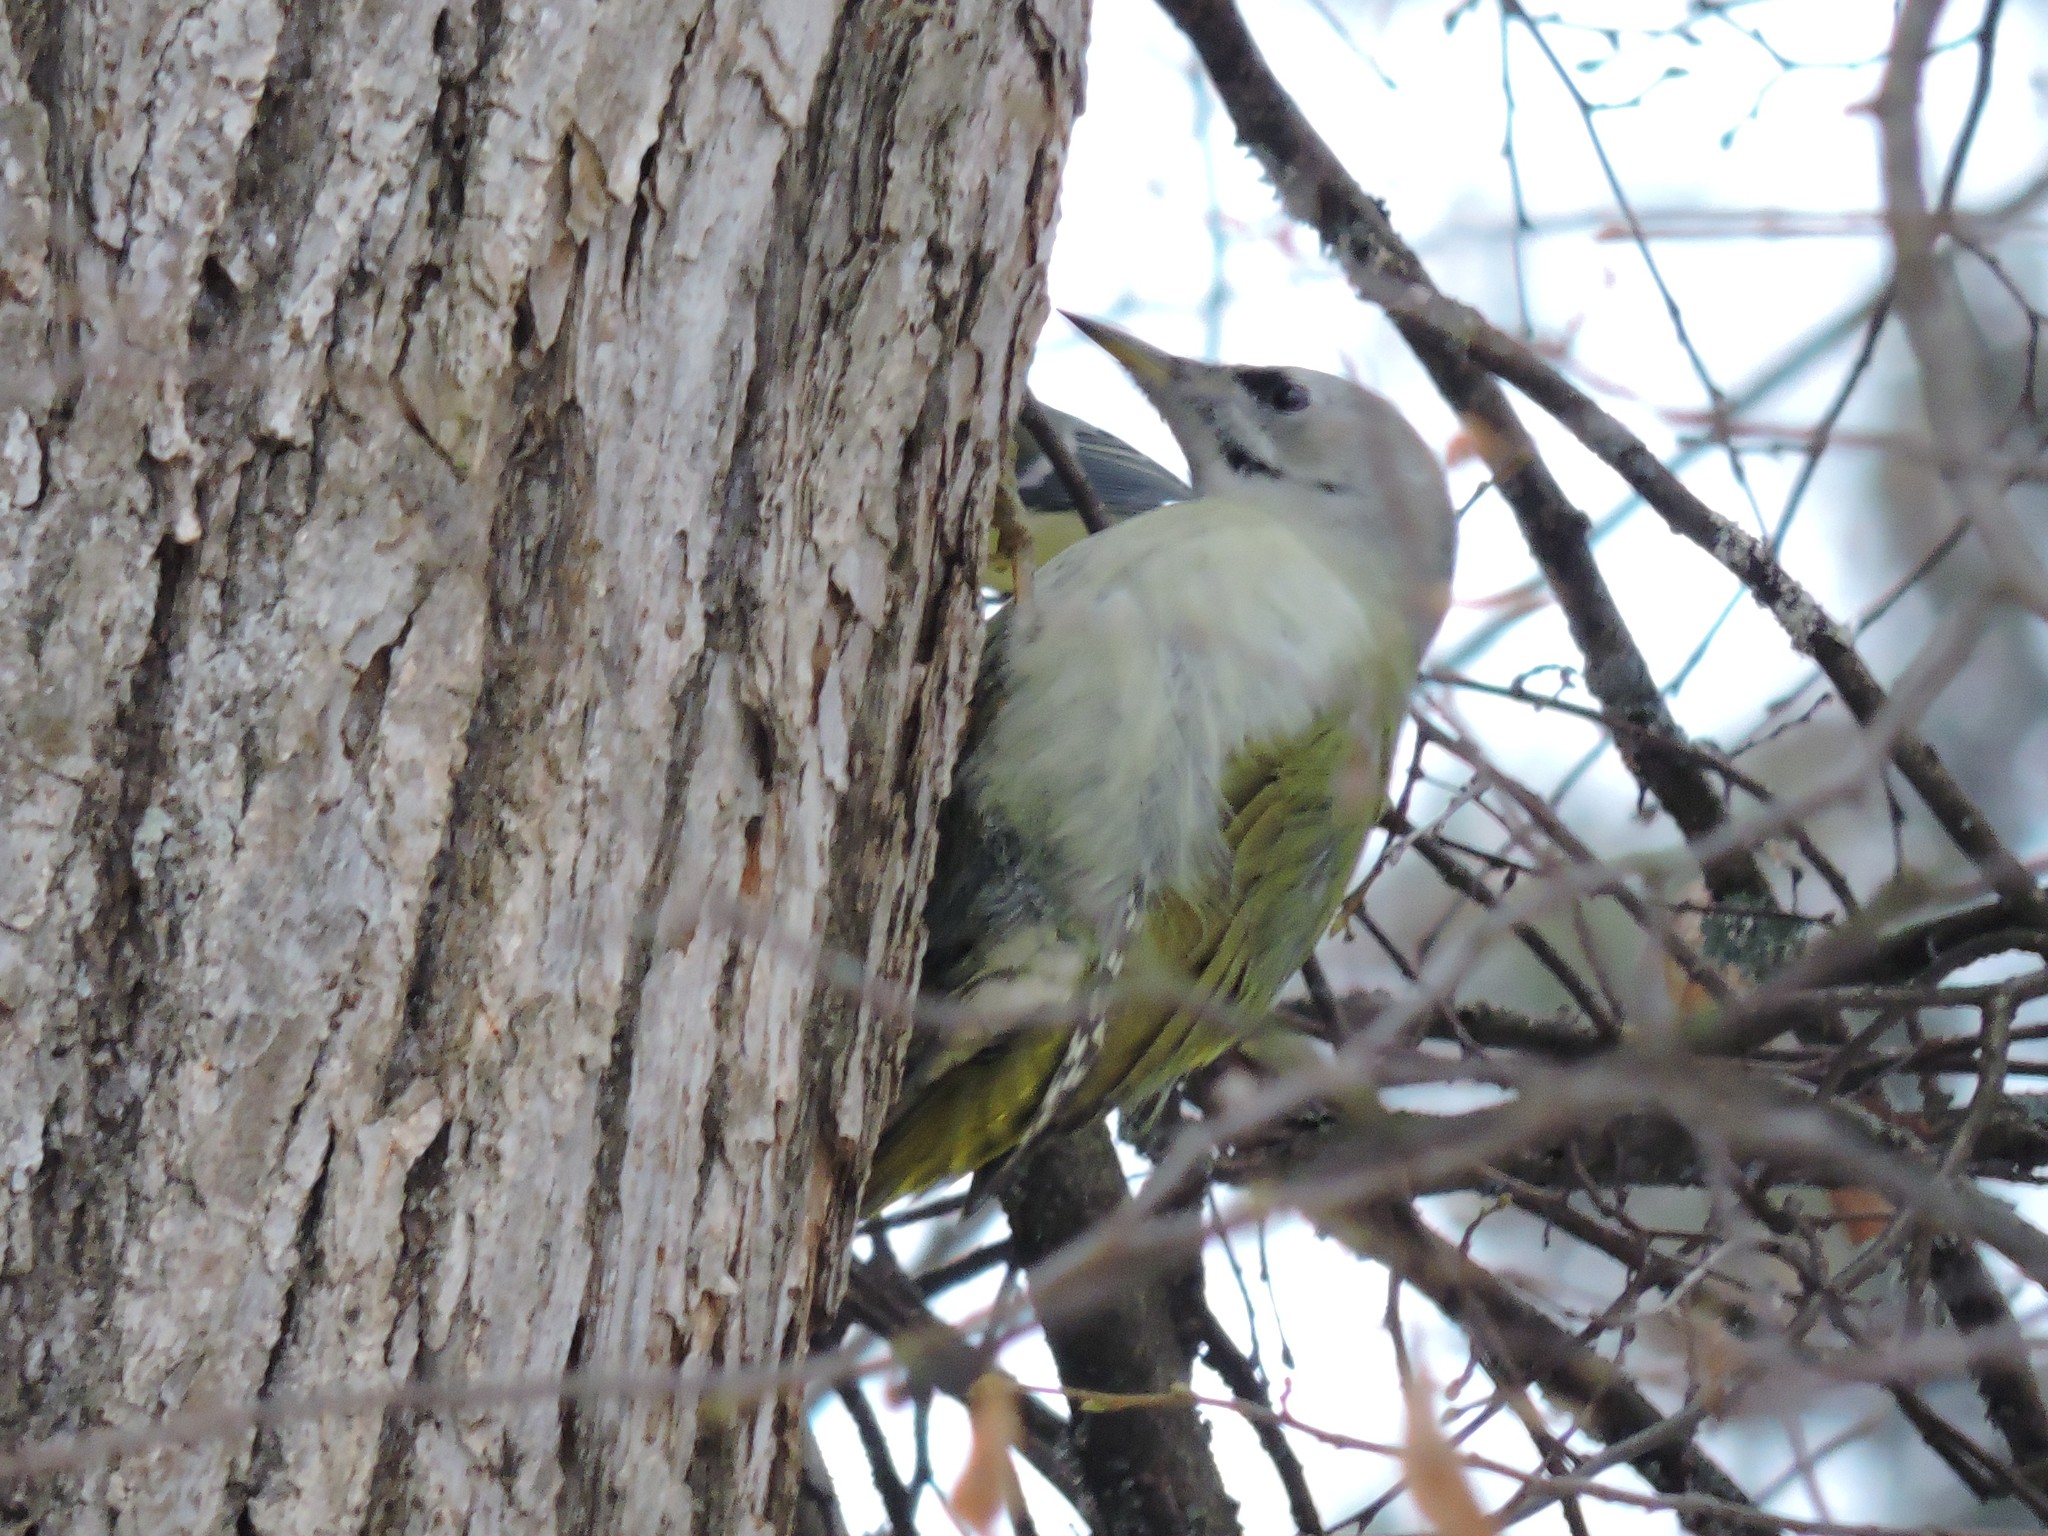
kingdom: Animalia
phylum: Chordata
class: Aves
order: Piciformes
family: Picidae
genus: Picus
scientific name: Picus canus
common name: Grey-headed woodpecker
